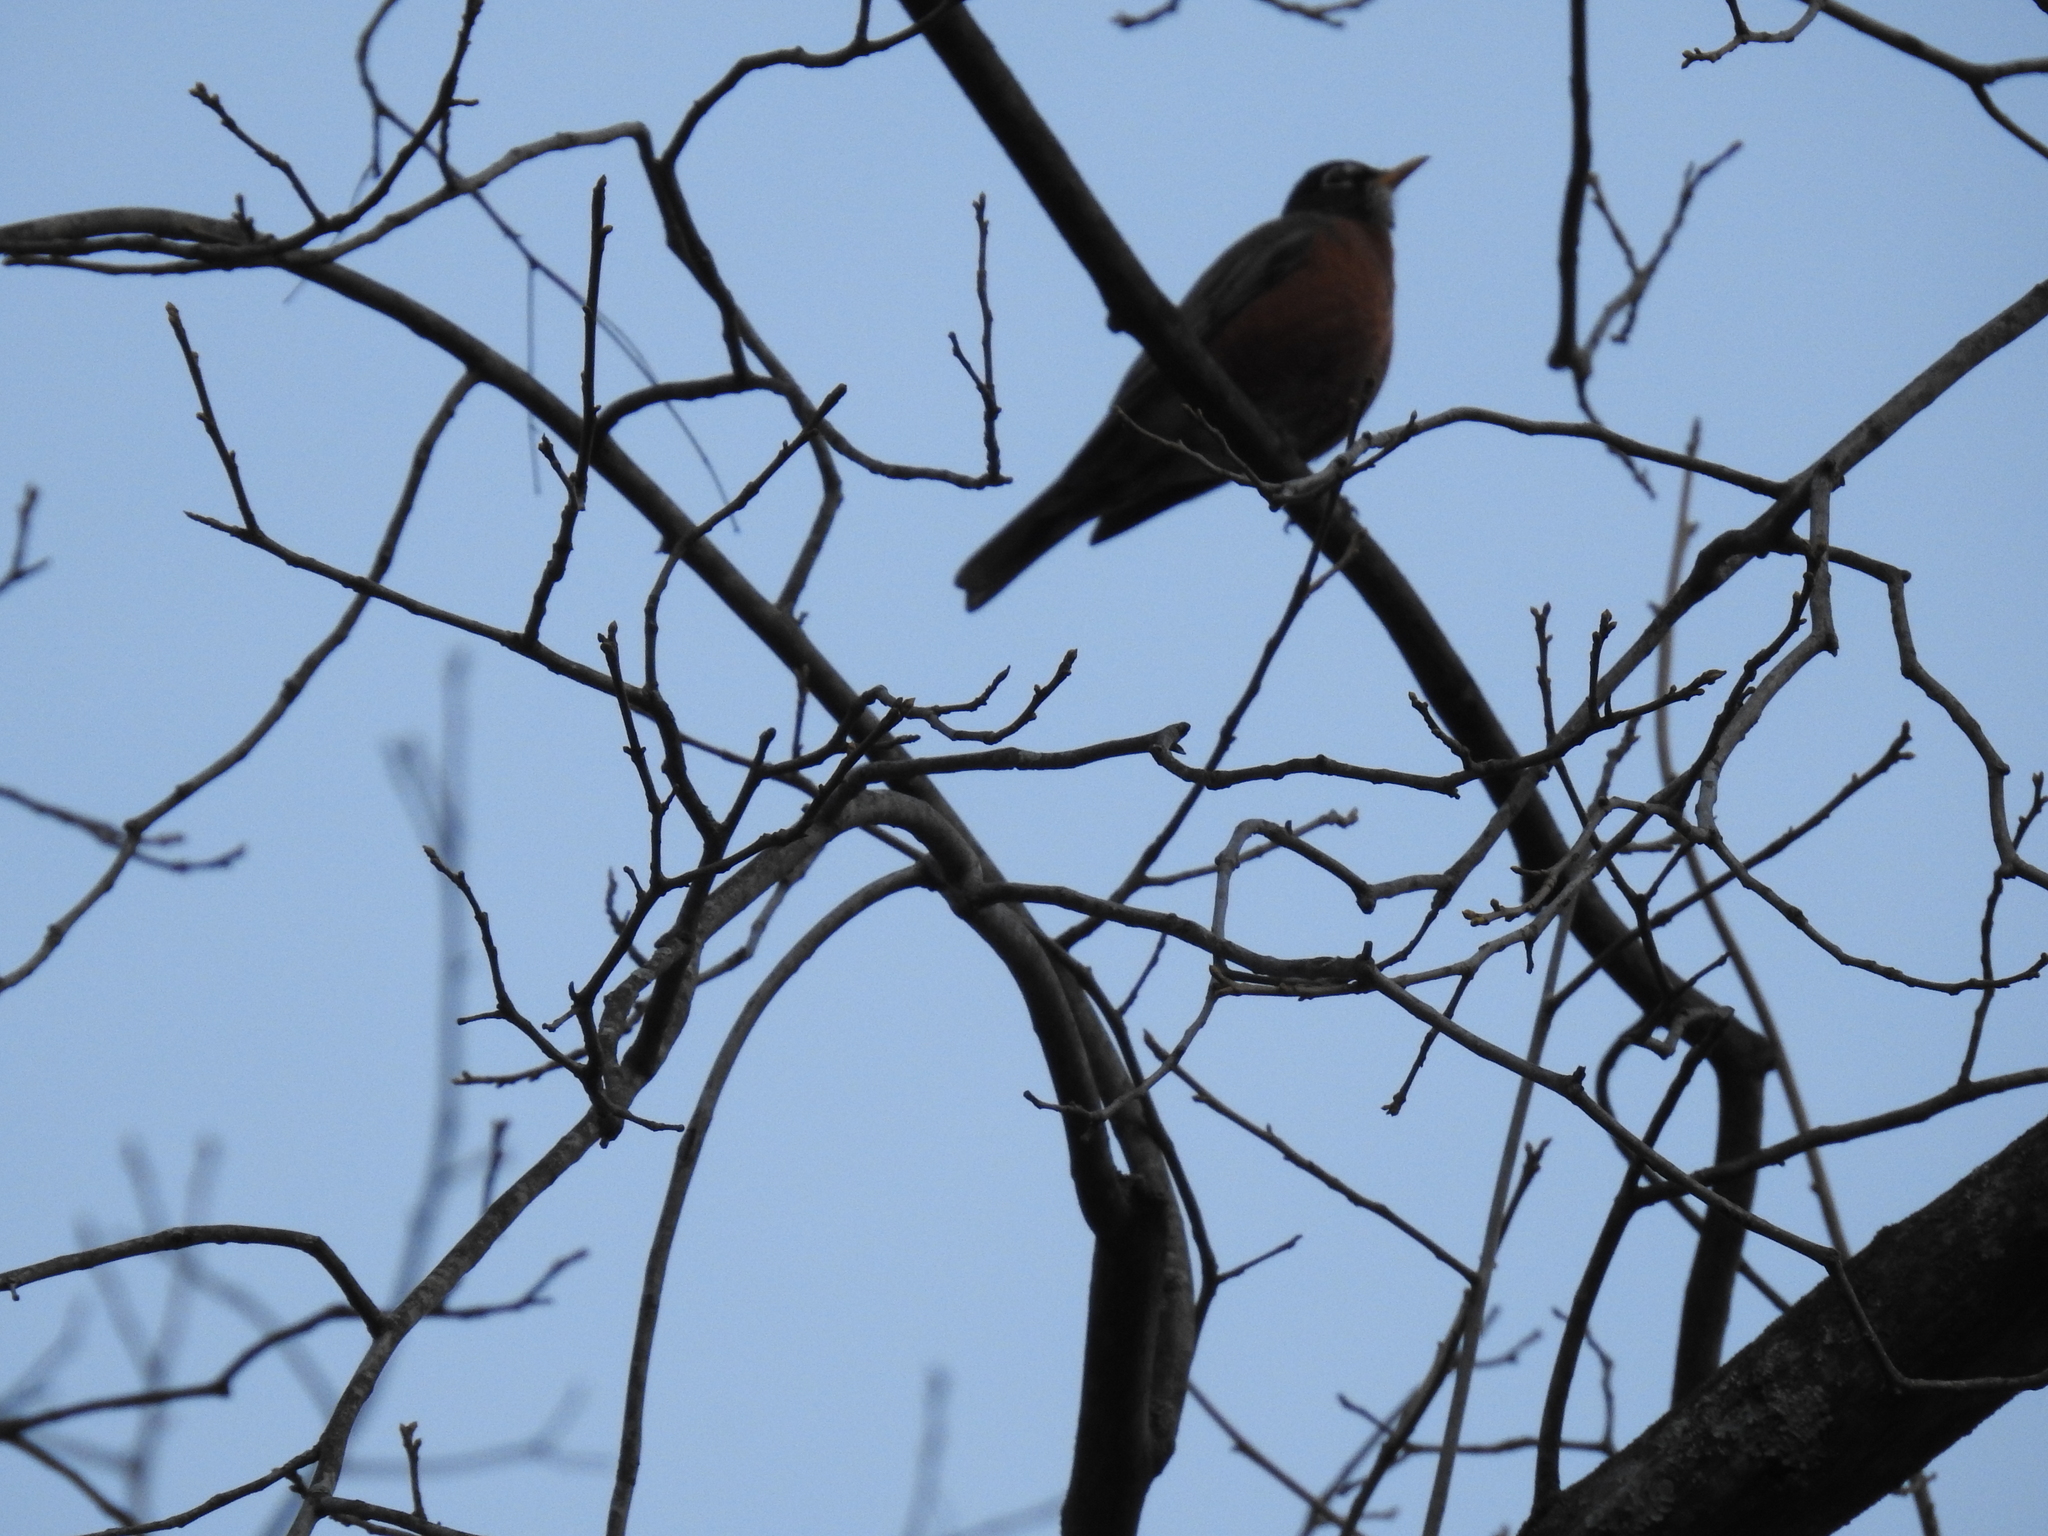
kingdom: Animalia
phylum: Chordata
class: Aves
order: Passeriformes
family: Turdidae
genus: Turdus
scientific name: Turdus migratorius
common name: American robin
